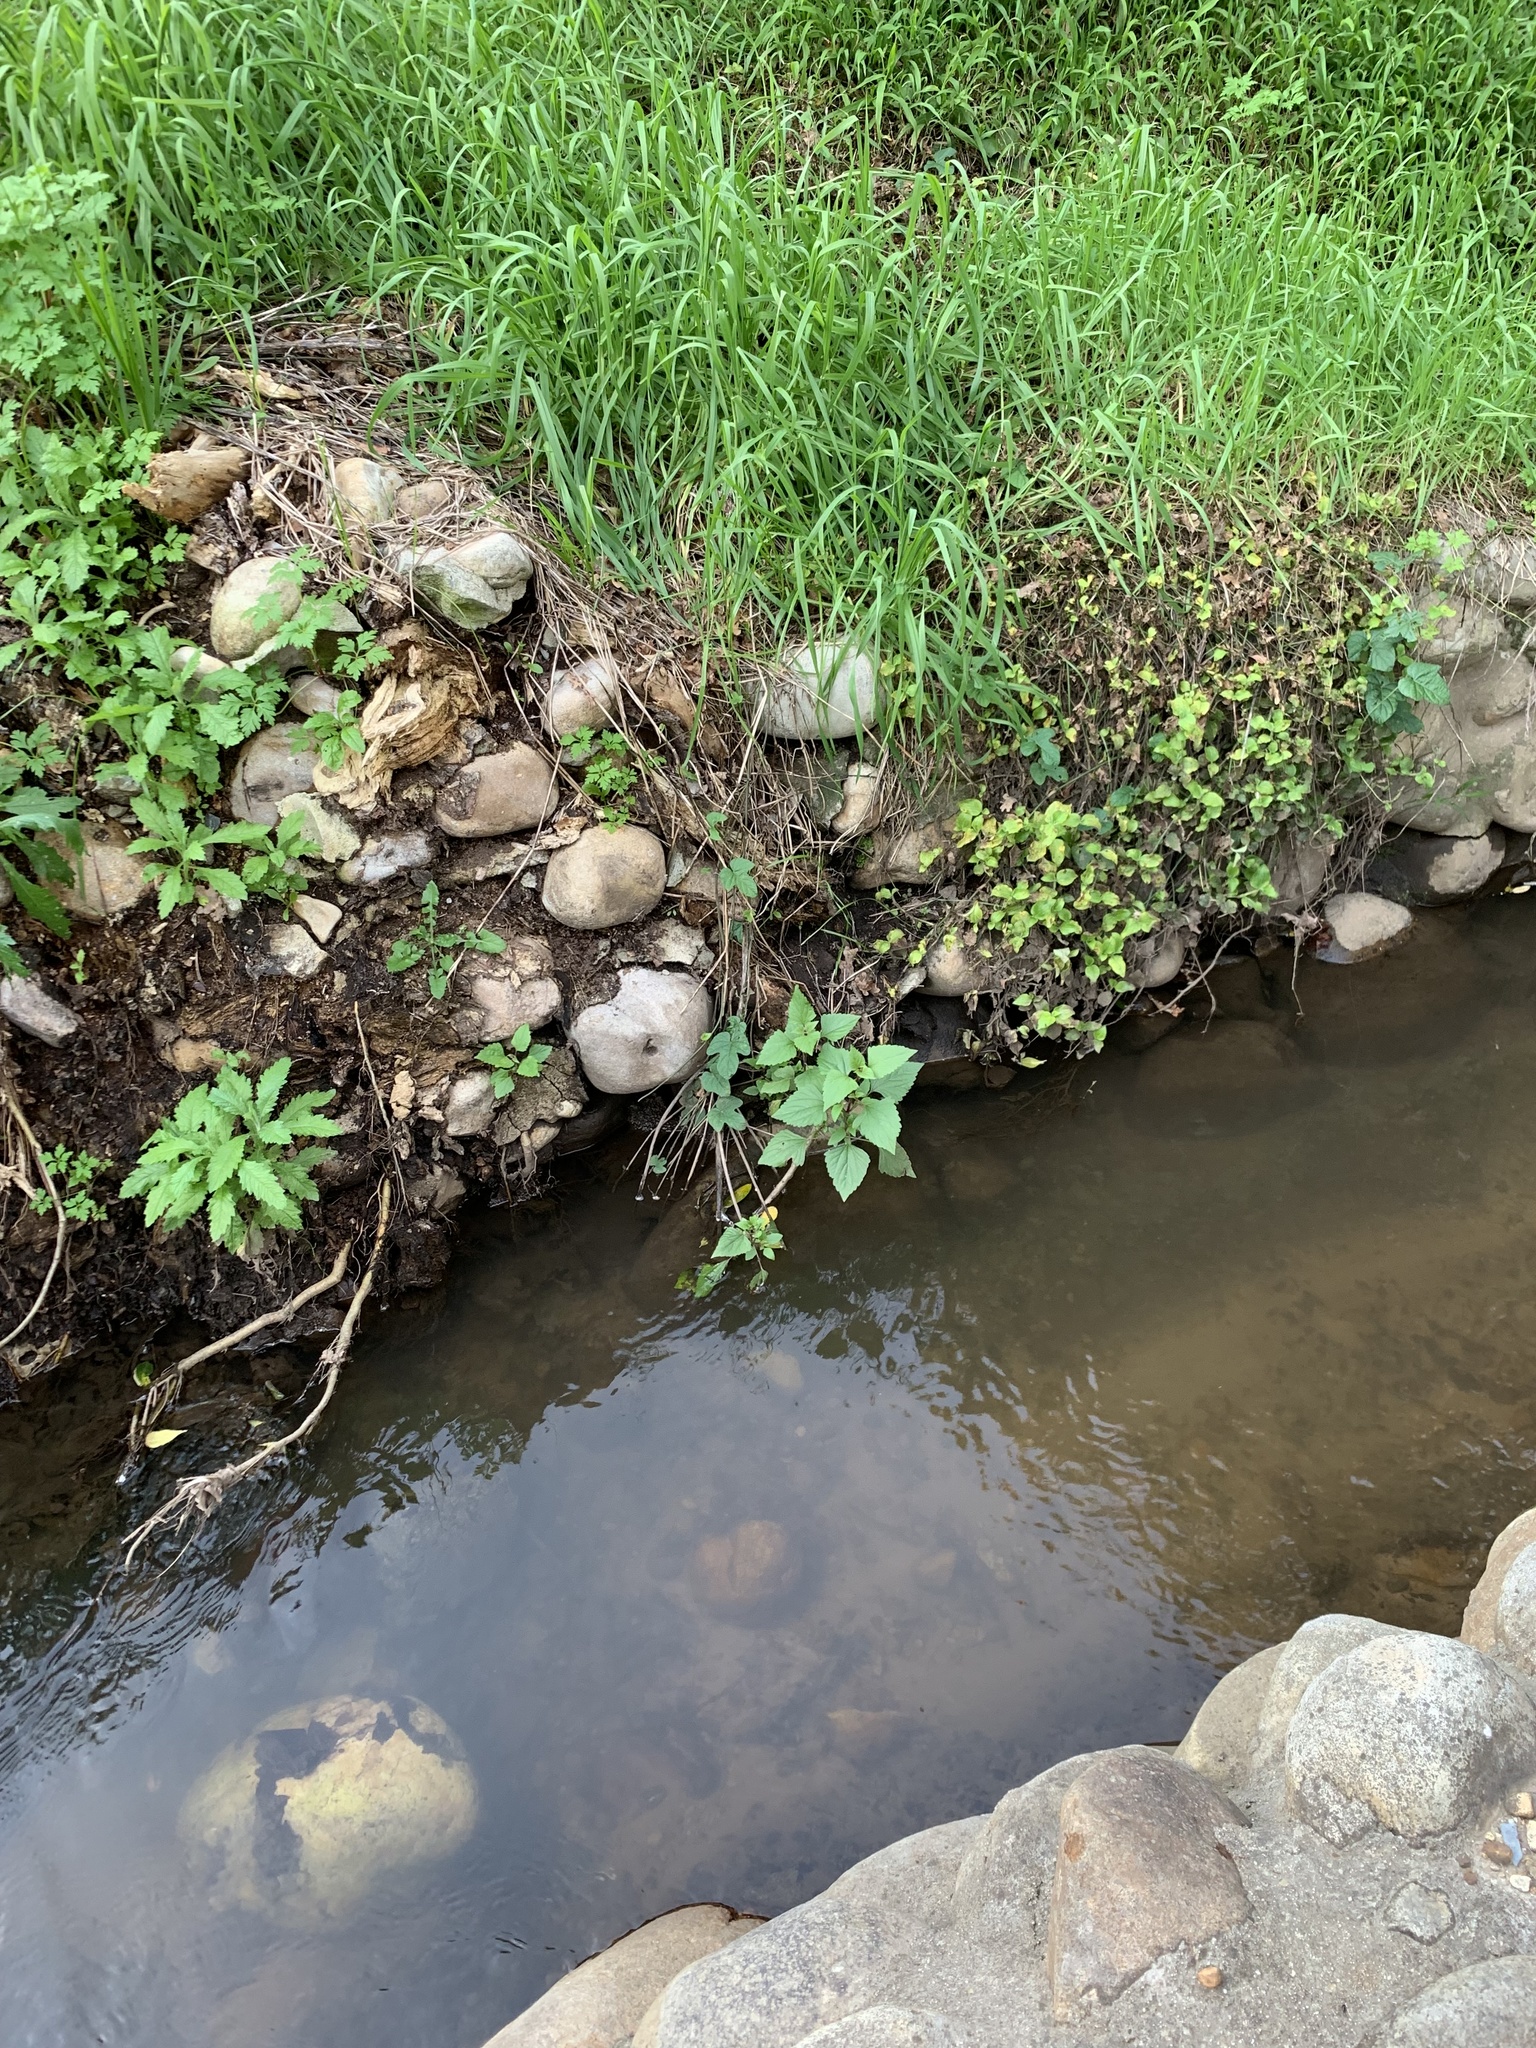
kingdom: Plantae
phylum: Tracheophyta
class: Magnoliopsida
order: Asterales
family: Asteraceae
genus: Ageratina
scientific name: Ageratina adenophora
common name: Sticky snakeroot
